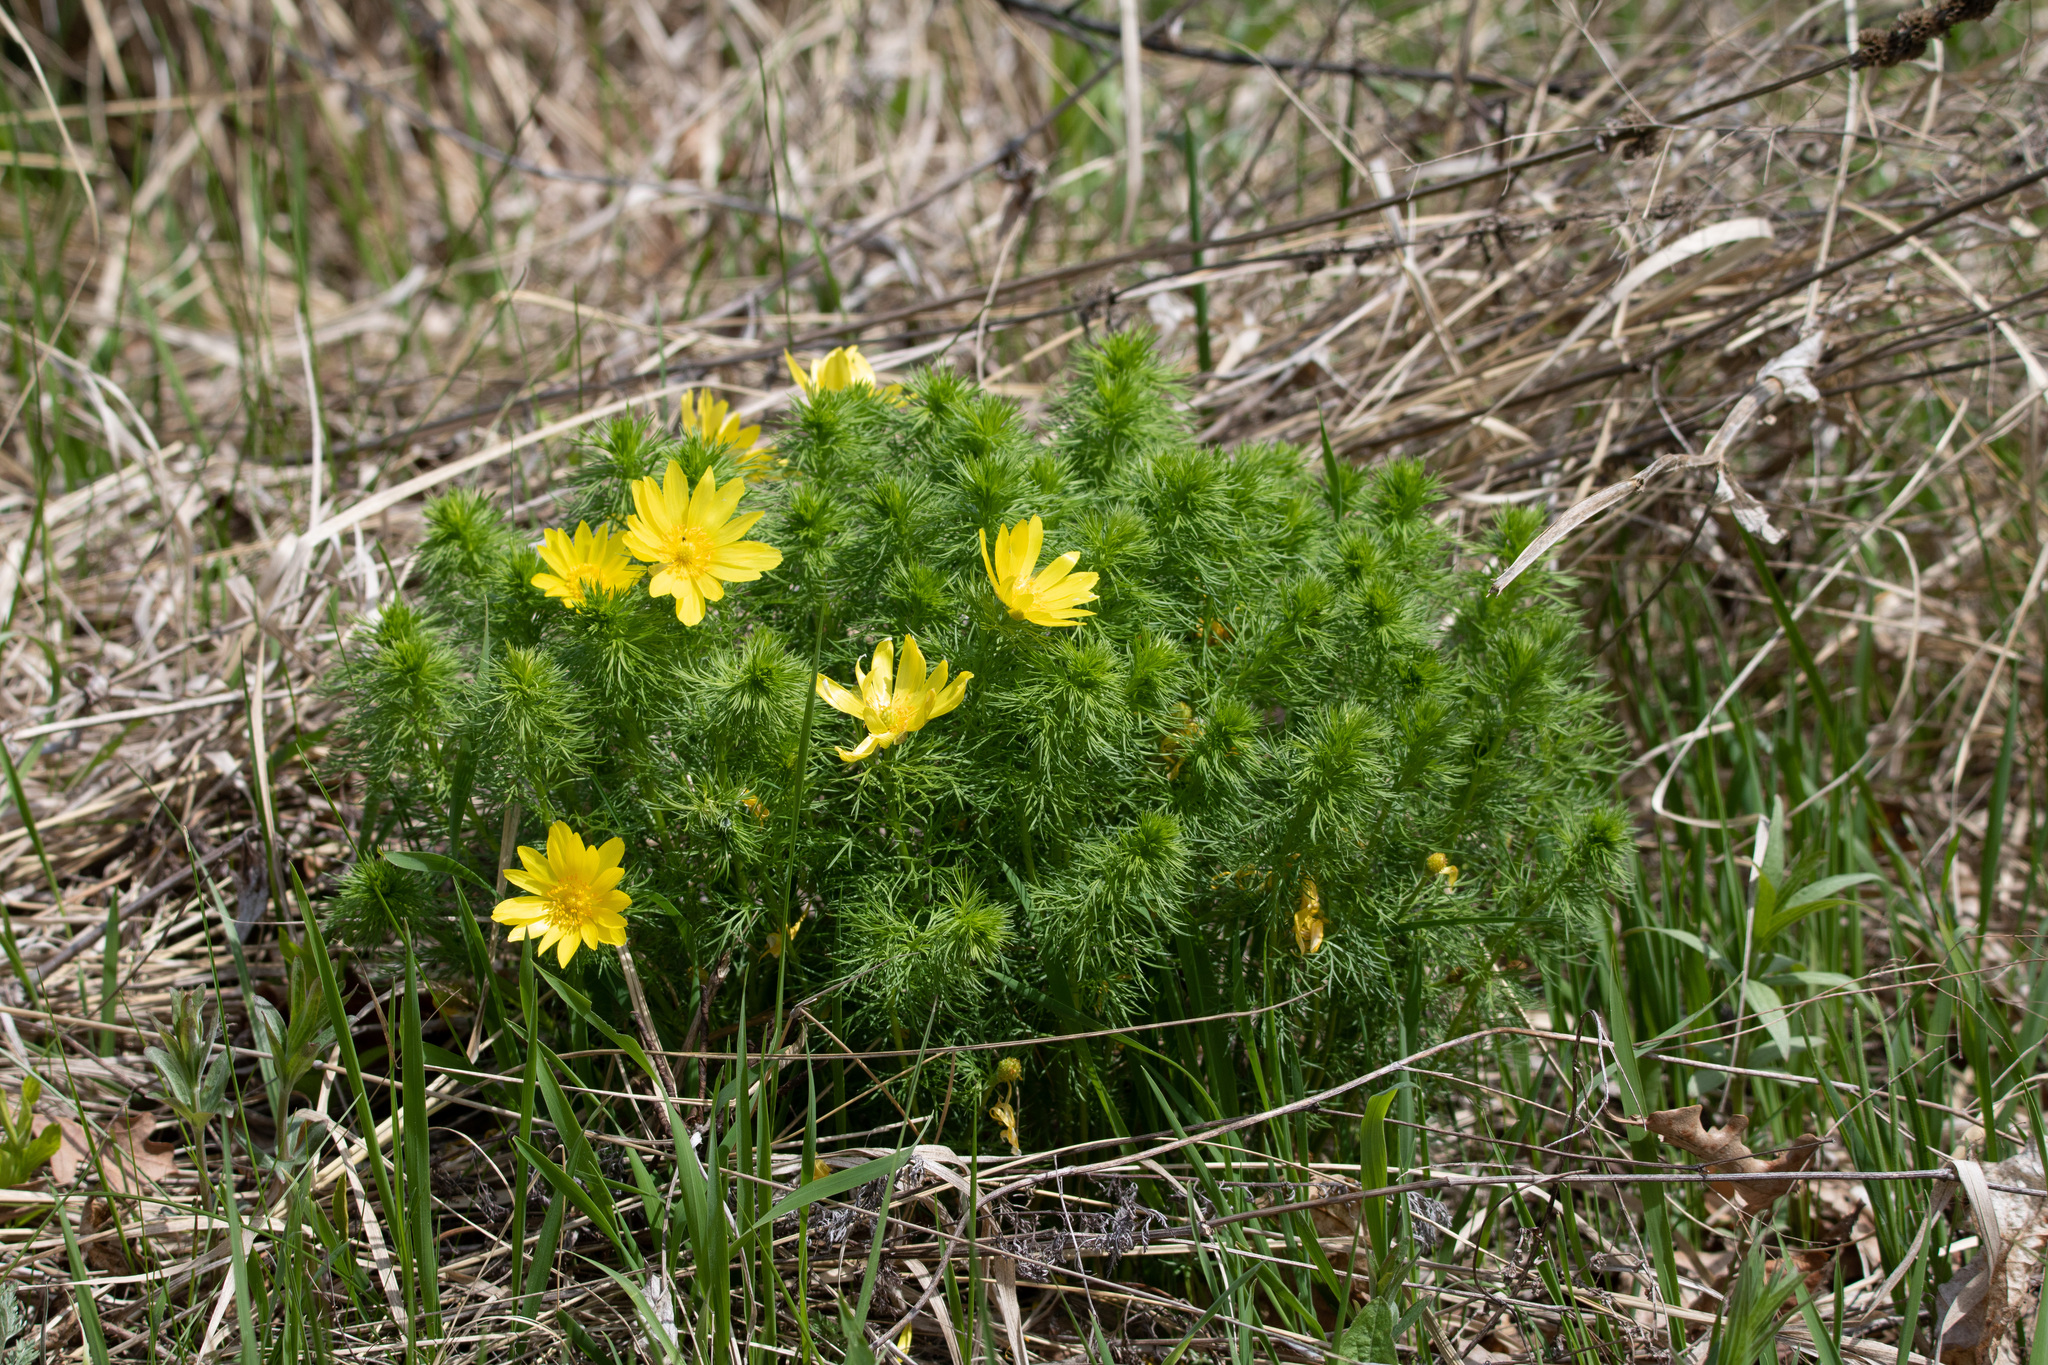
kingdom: Plantae
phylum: Tracheophyta
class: Magnoliopsida
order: Ranunculales
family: Ranunculaceae
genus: Adonis
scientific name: Adonis vernalis
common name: Yellow pheasants-eye
